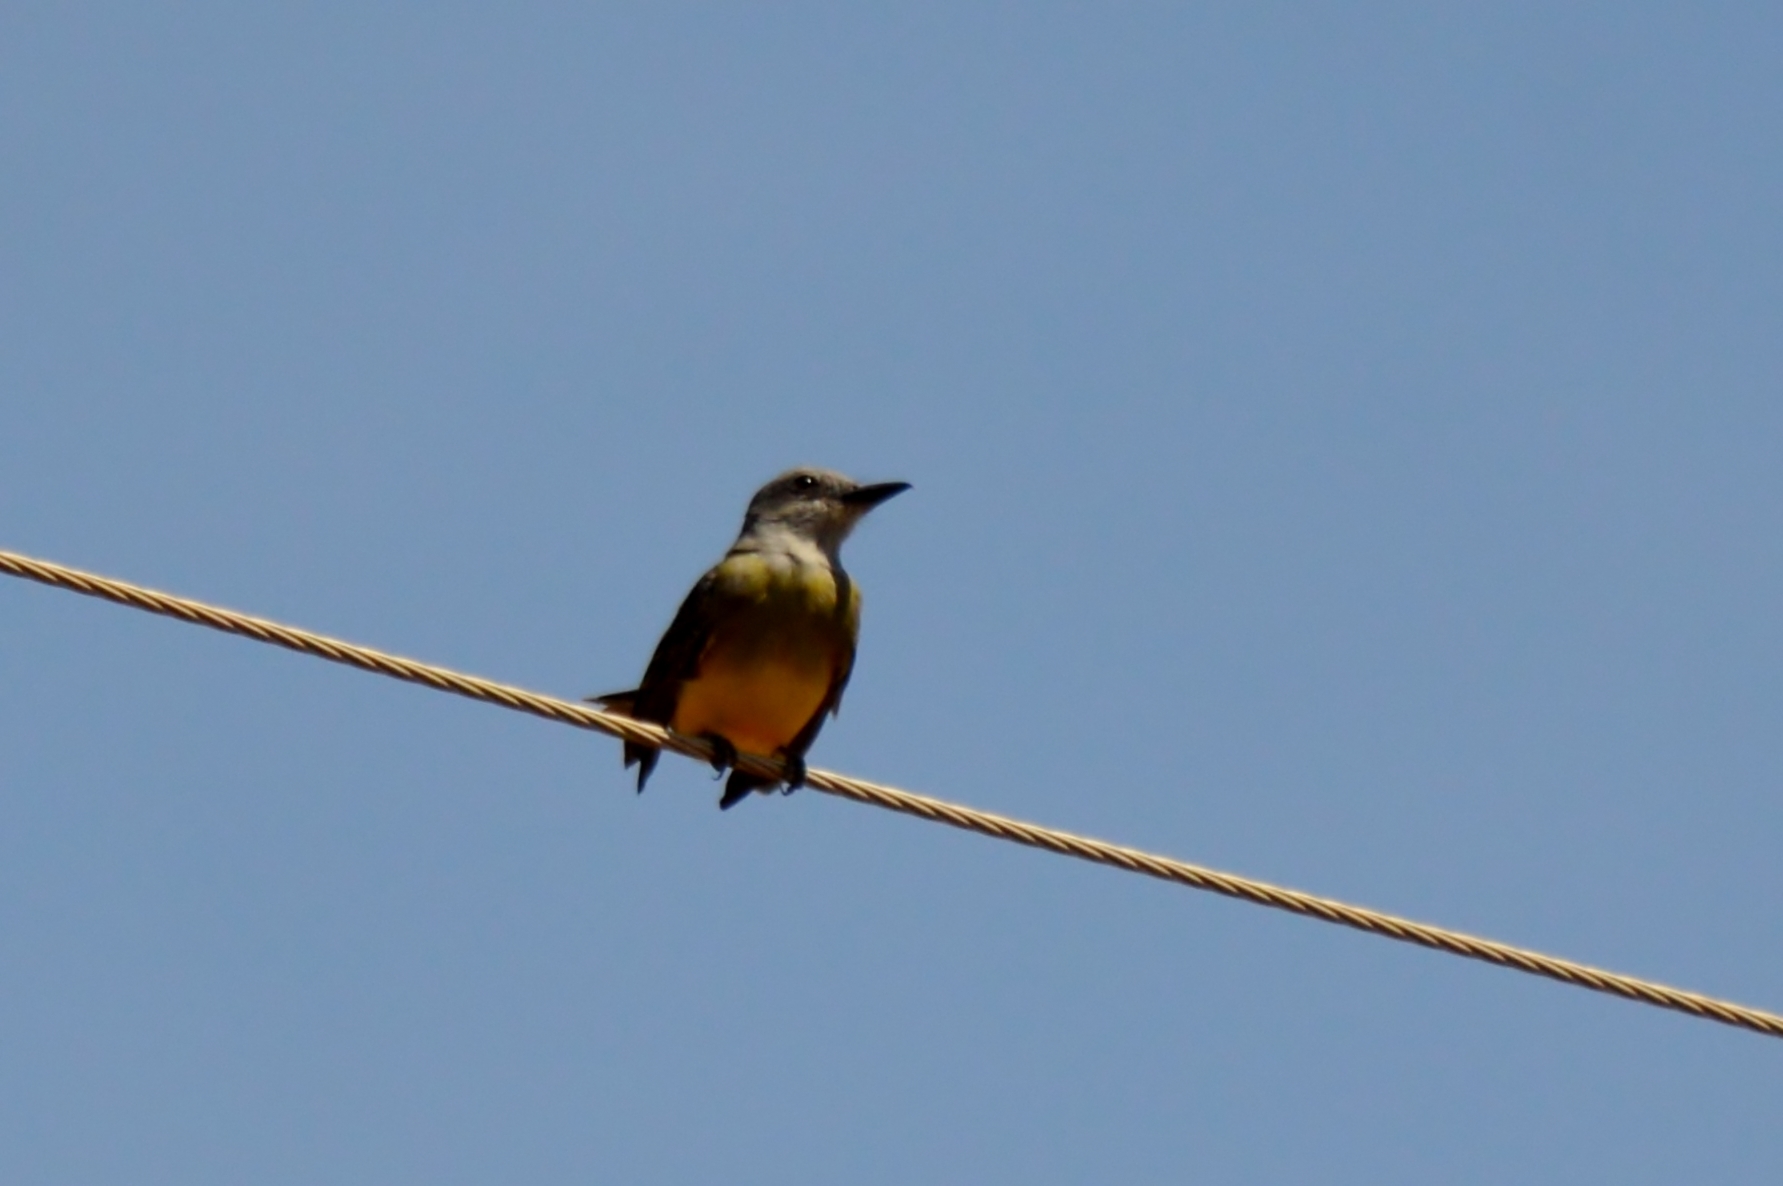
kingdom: Animalia
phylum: Chordata
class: Aves
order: Passeriformes
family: Tyrannidae
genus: Tyrannus
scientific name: Tyrannus melancholicus
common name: Tropical kingbird
